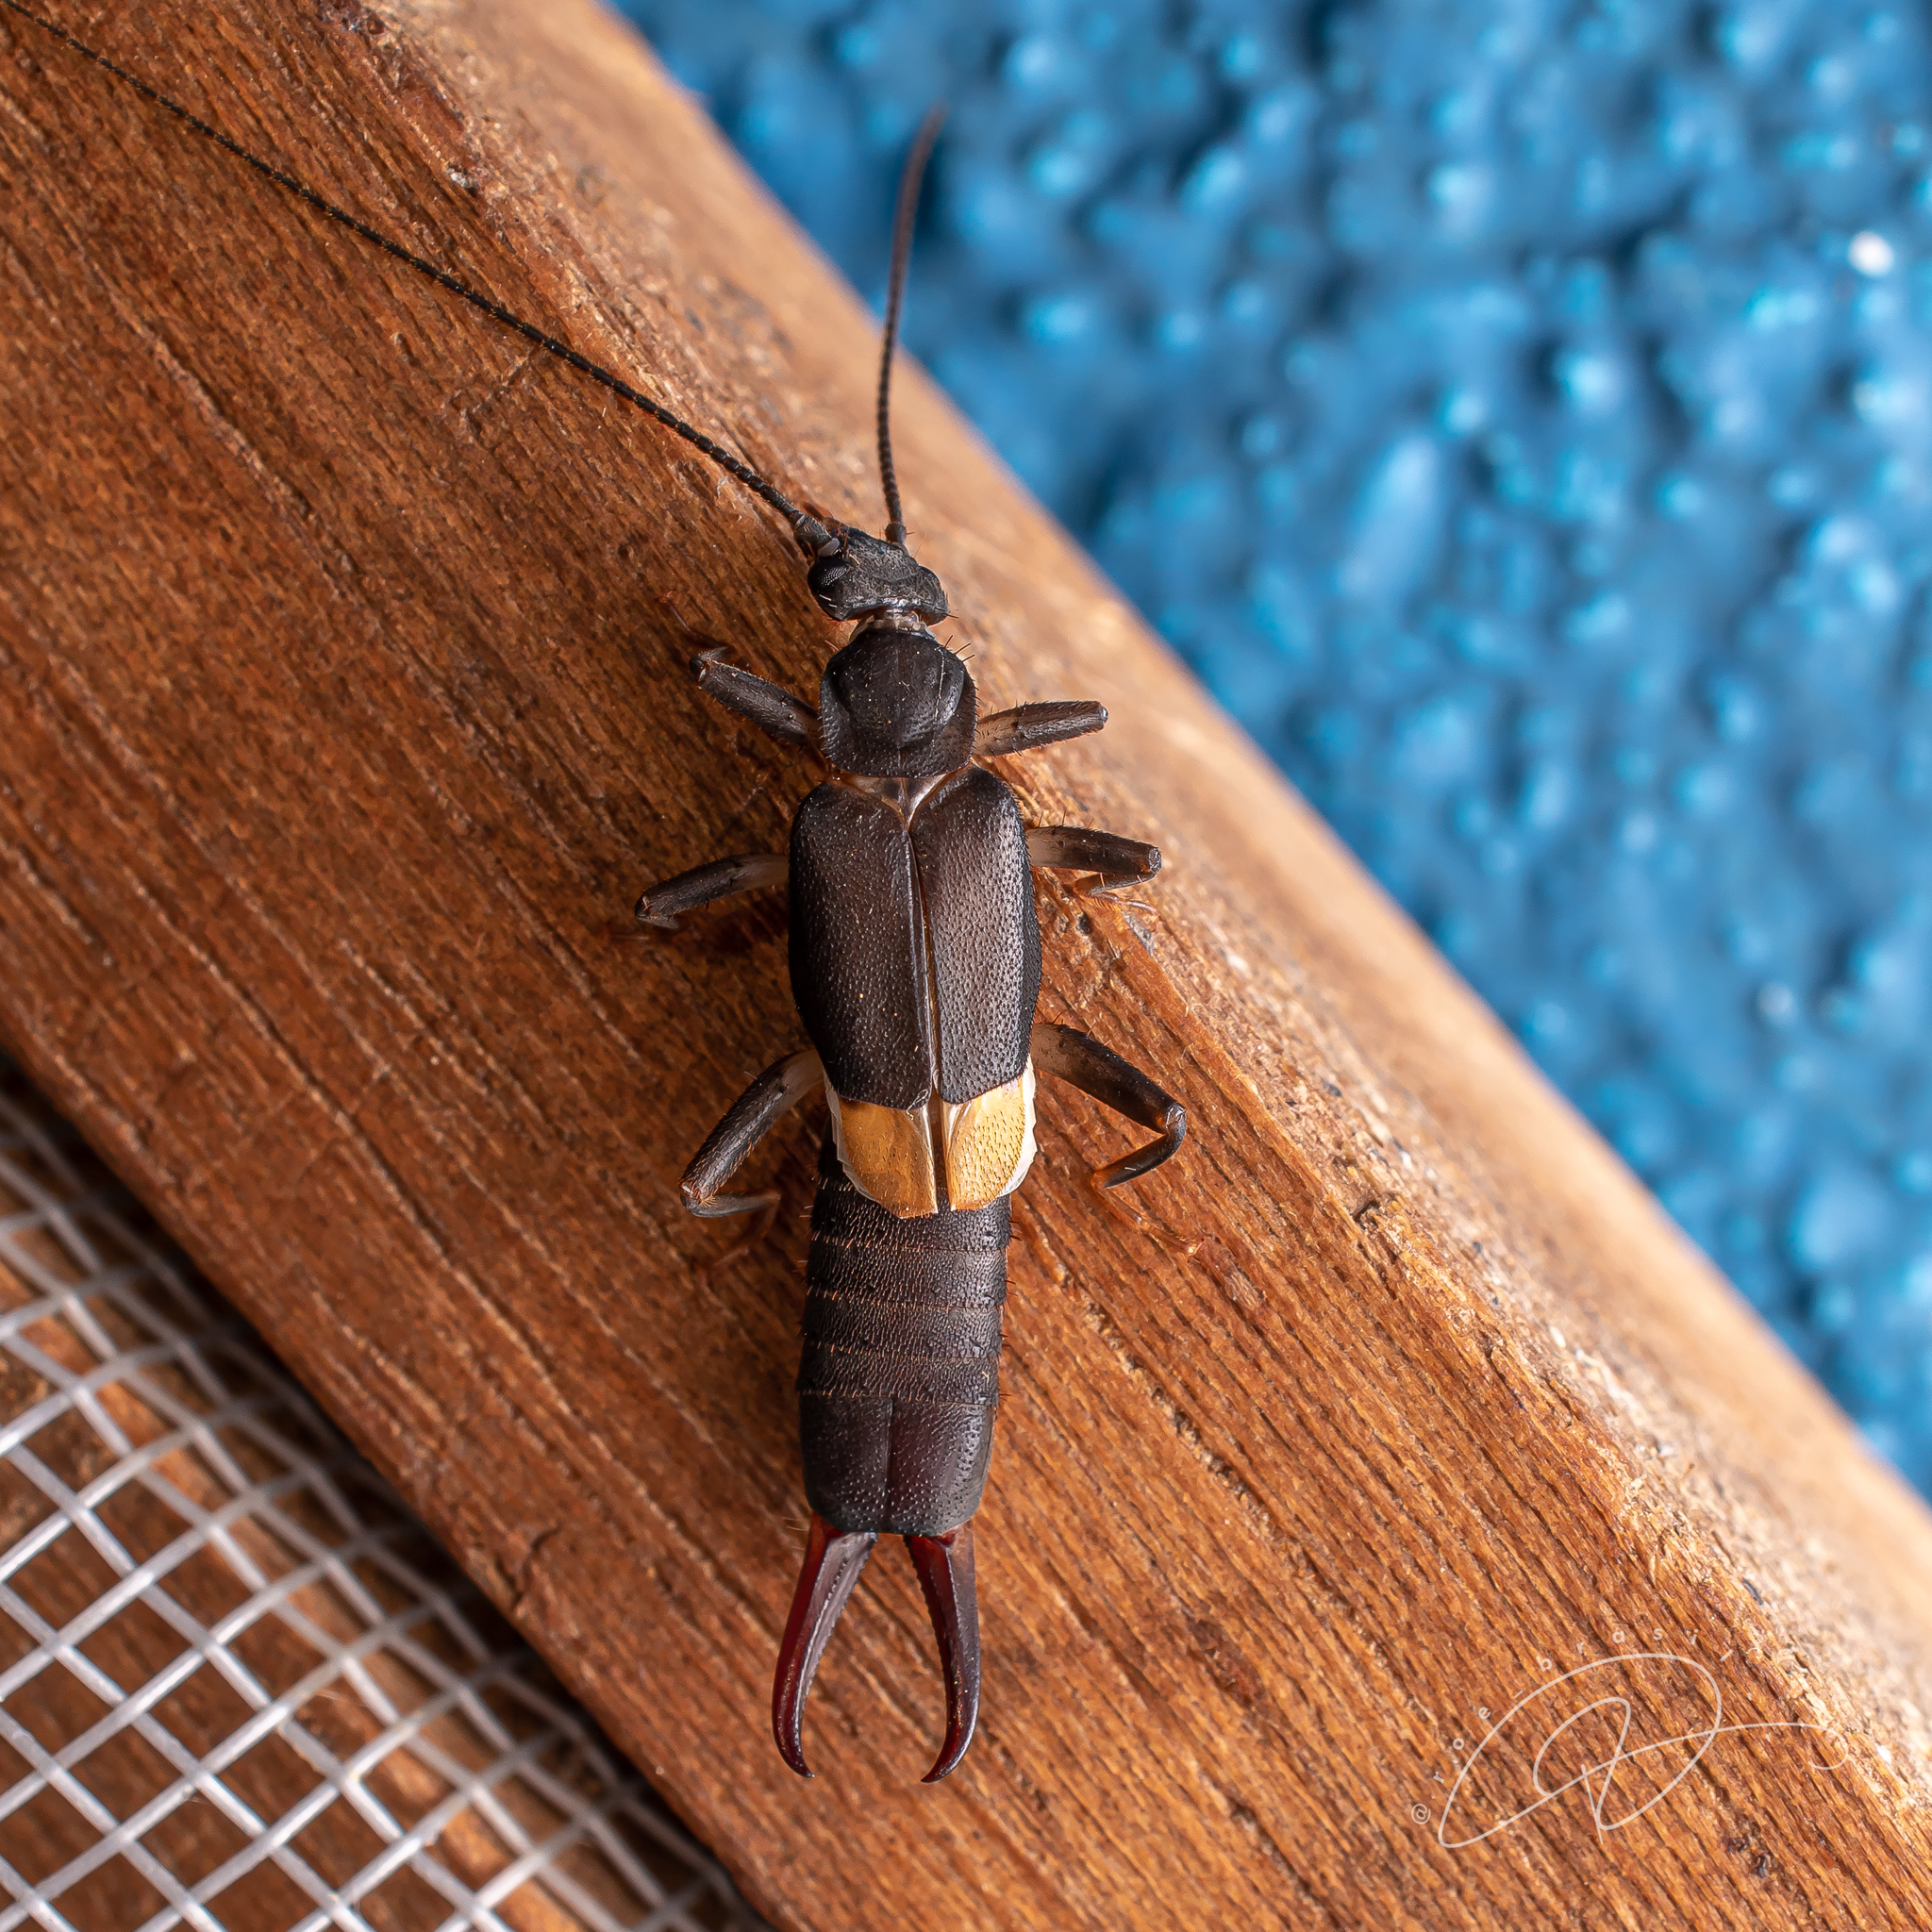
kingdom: Animalia
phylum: Arthropoda
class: Insecta
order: Dermaptera
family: Pygidicranidae
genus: Pyragra
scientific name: Pyragra paraguayensis
